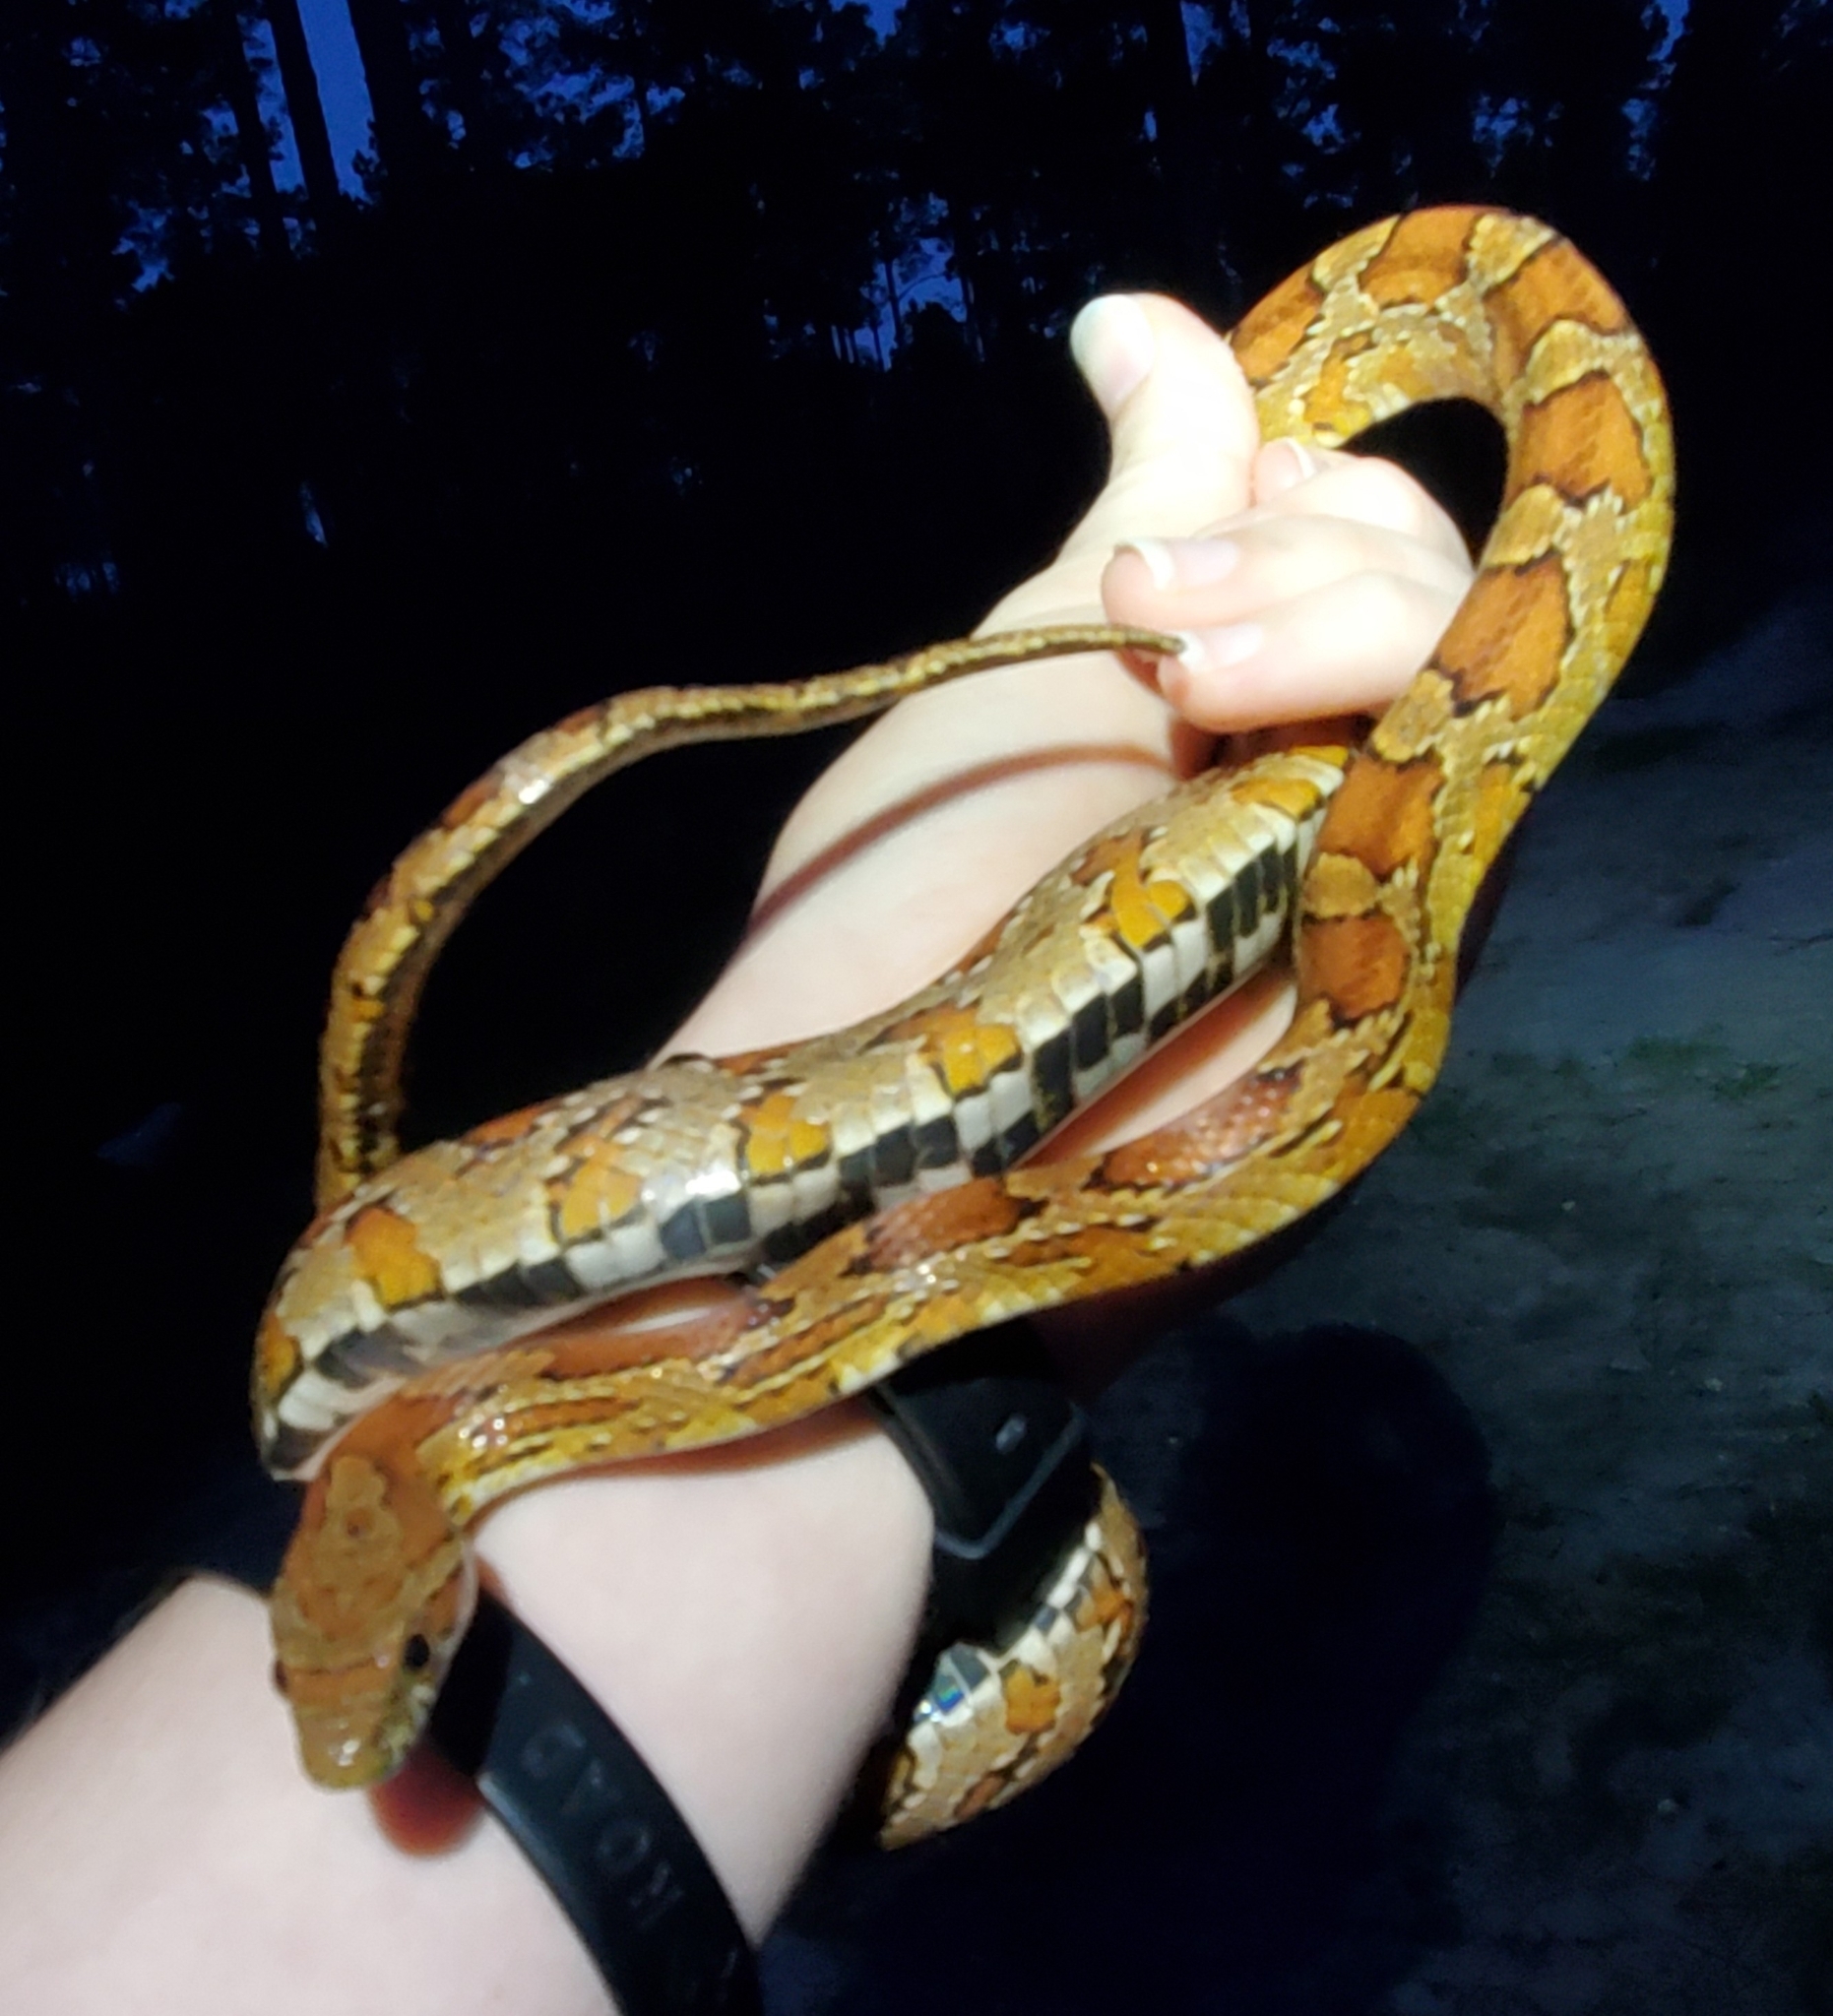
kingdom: Animalia
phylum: Chordata
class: Squamata
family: Colubridae
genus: Pantherophis
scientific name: Pantherophis guttatus
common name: Red cornsnake
